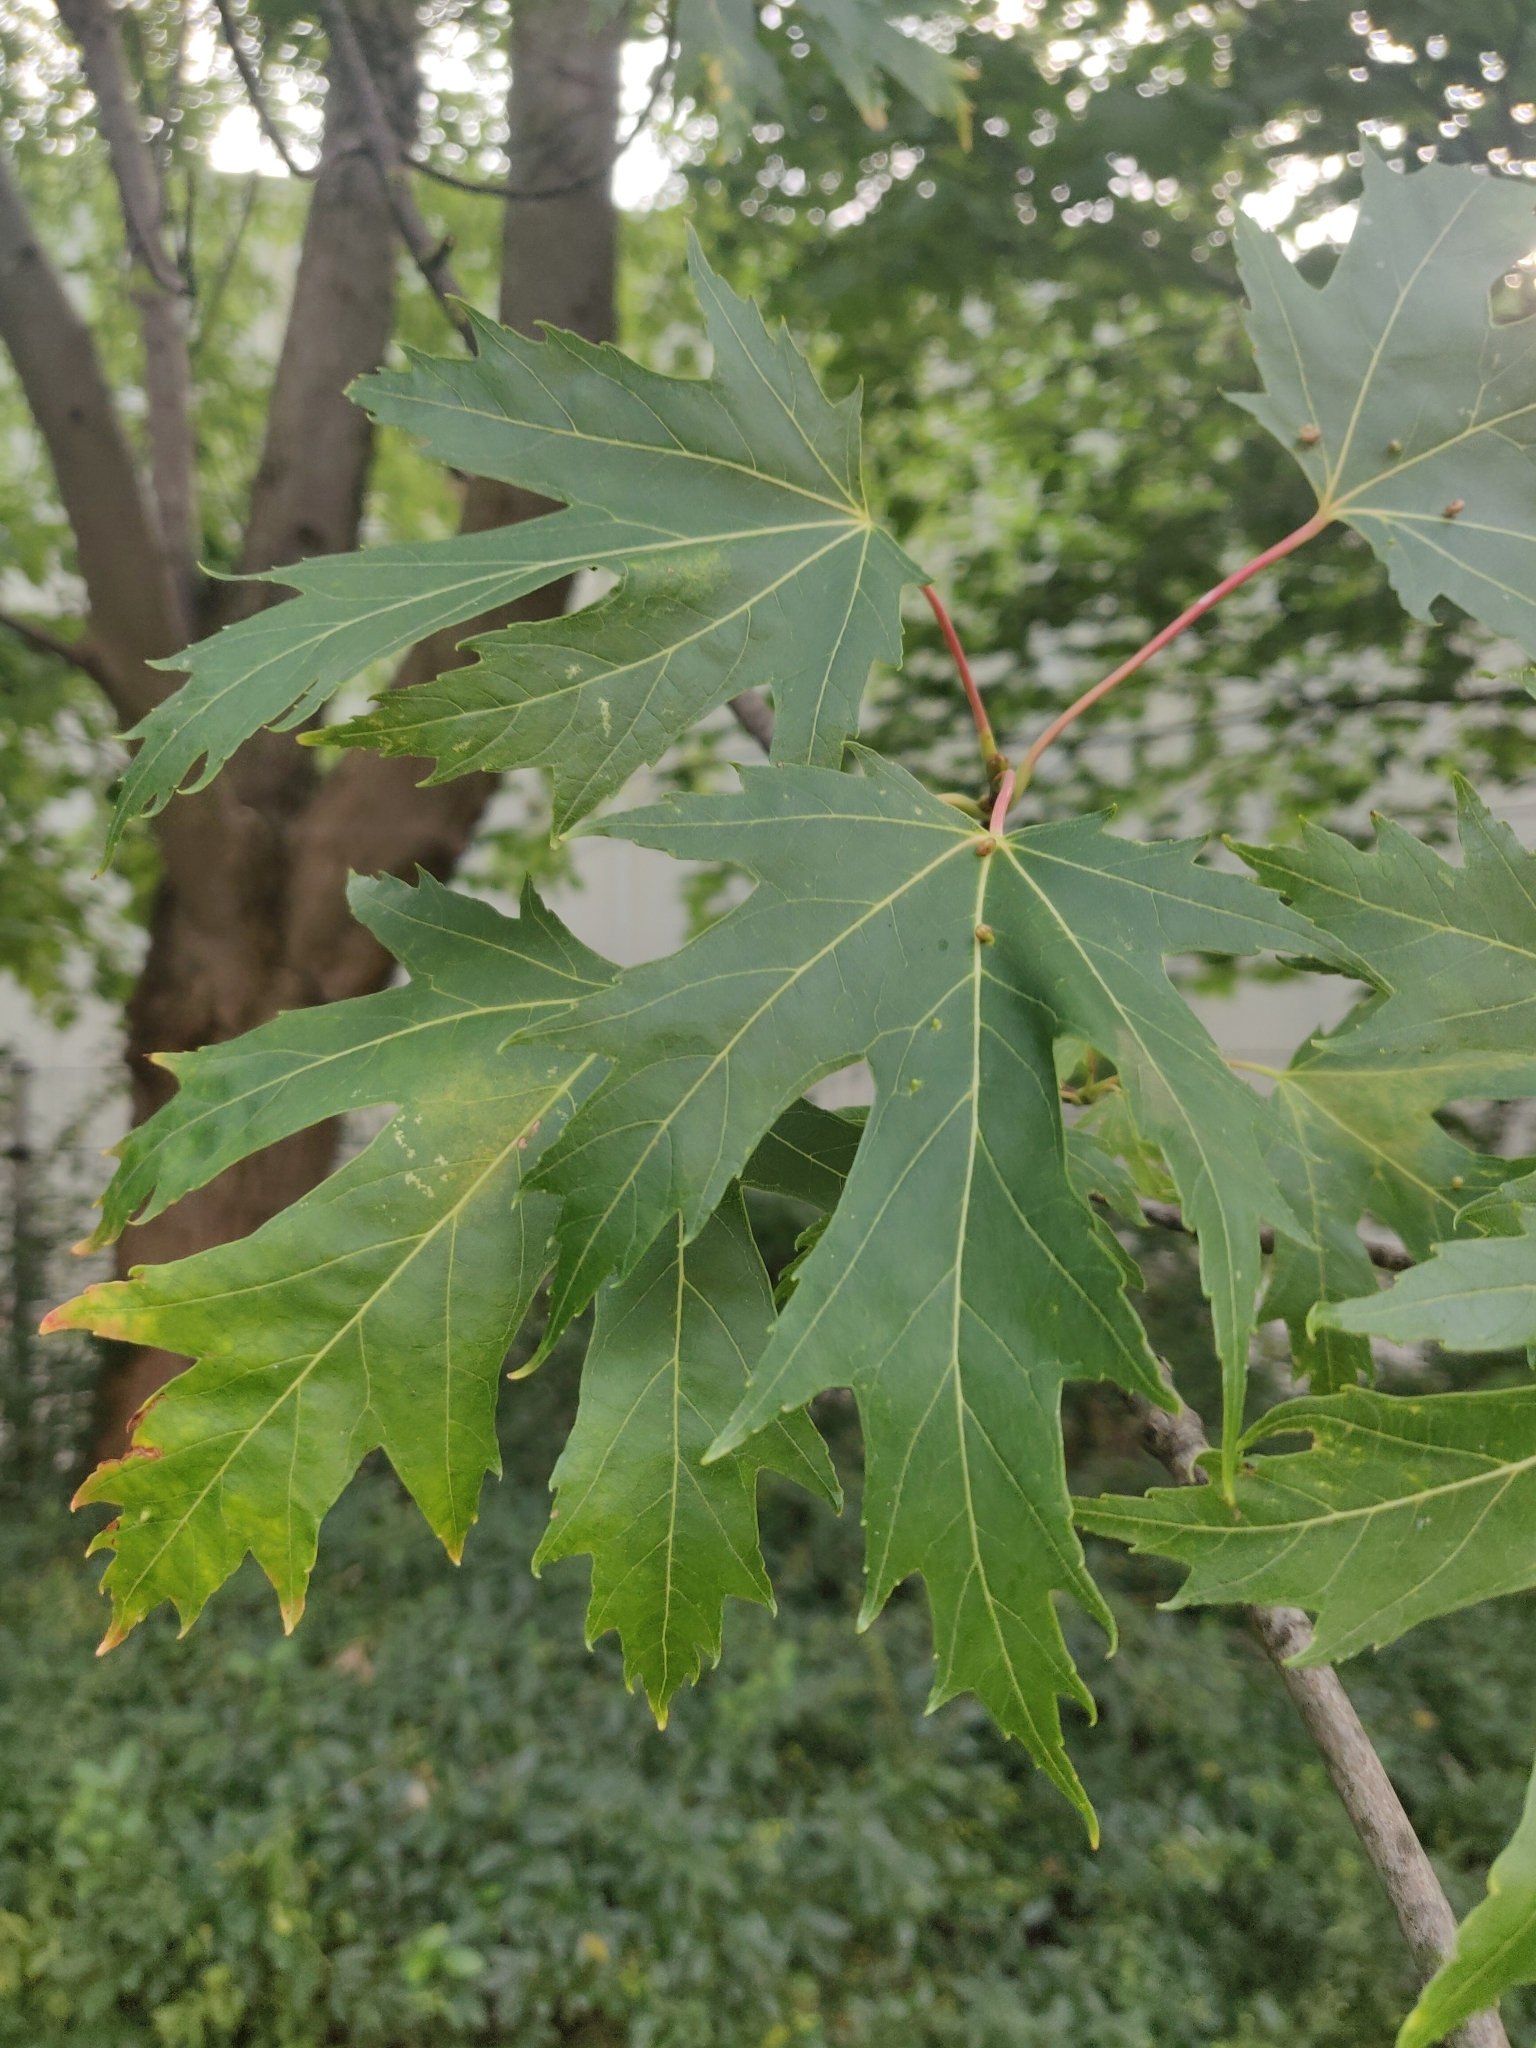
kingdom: Plantae
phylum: Tracheophyta
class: Magnoliopsida
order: Sapindales
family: Sapindaceae
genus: Acer
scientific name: Acer saccharinum
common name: Silver maple
